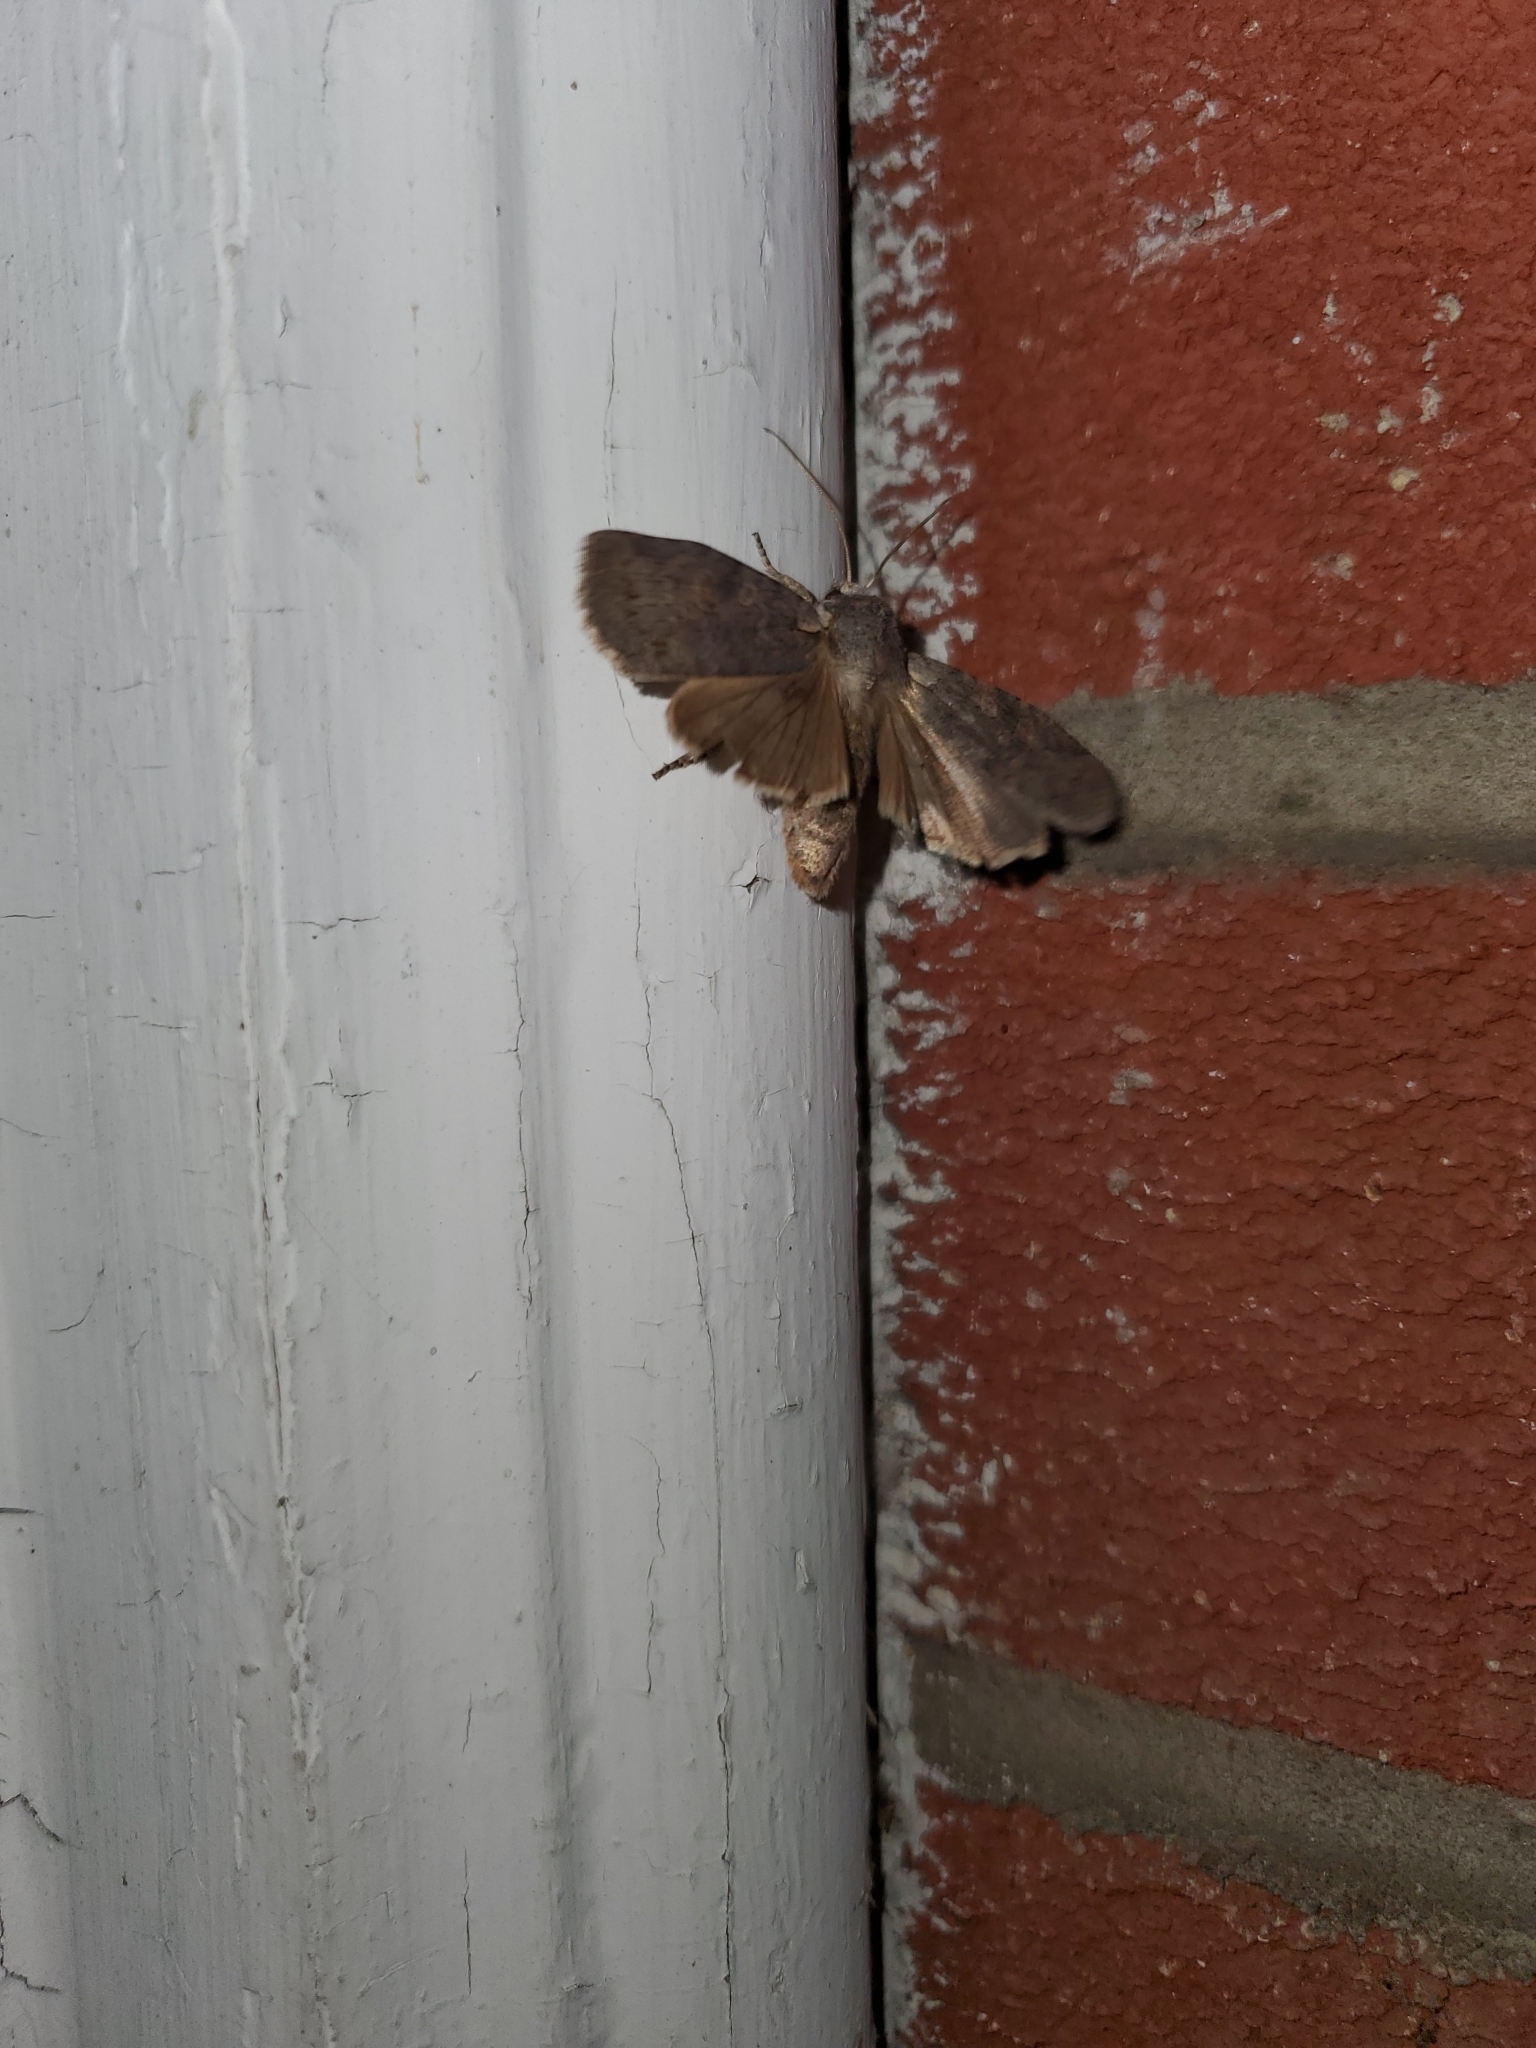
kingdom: Animalia
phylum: Arthropoda
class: Insecta
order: Lepidoptera
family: Noctuidae
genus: Lithophane
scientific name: Lithophane antennata
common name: Ashen pinion
